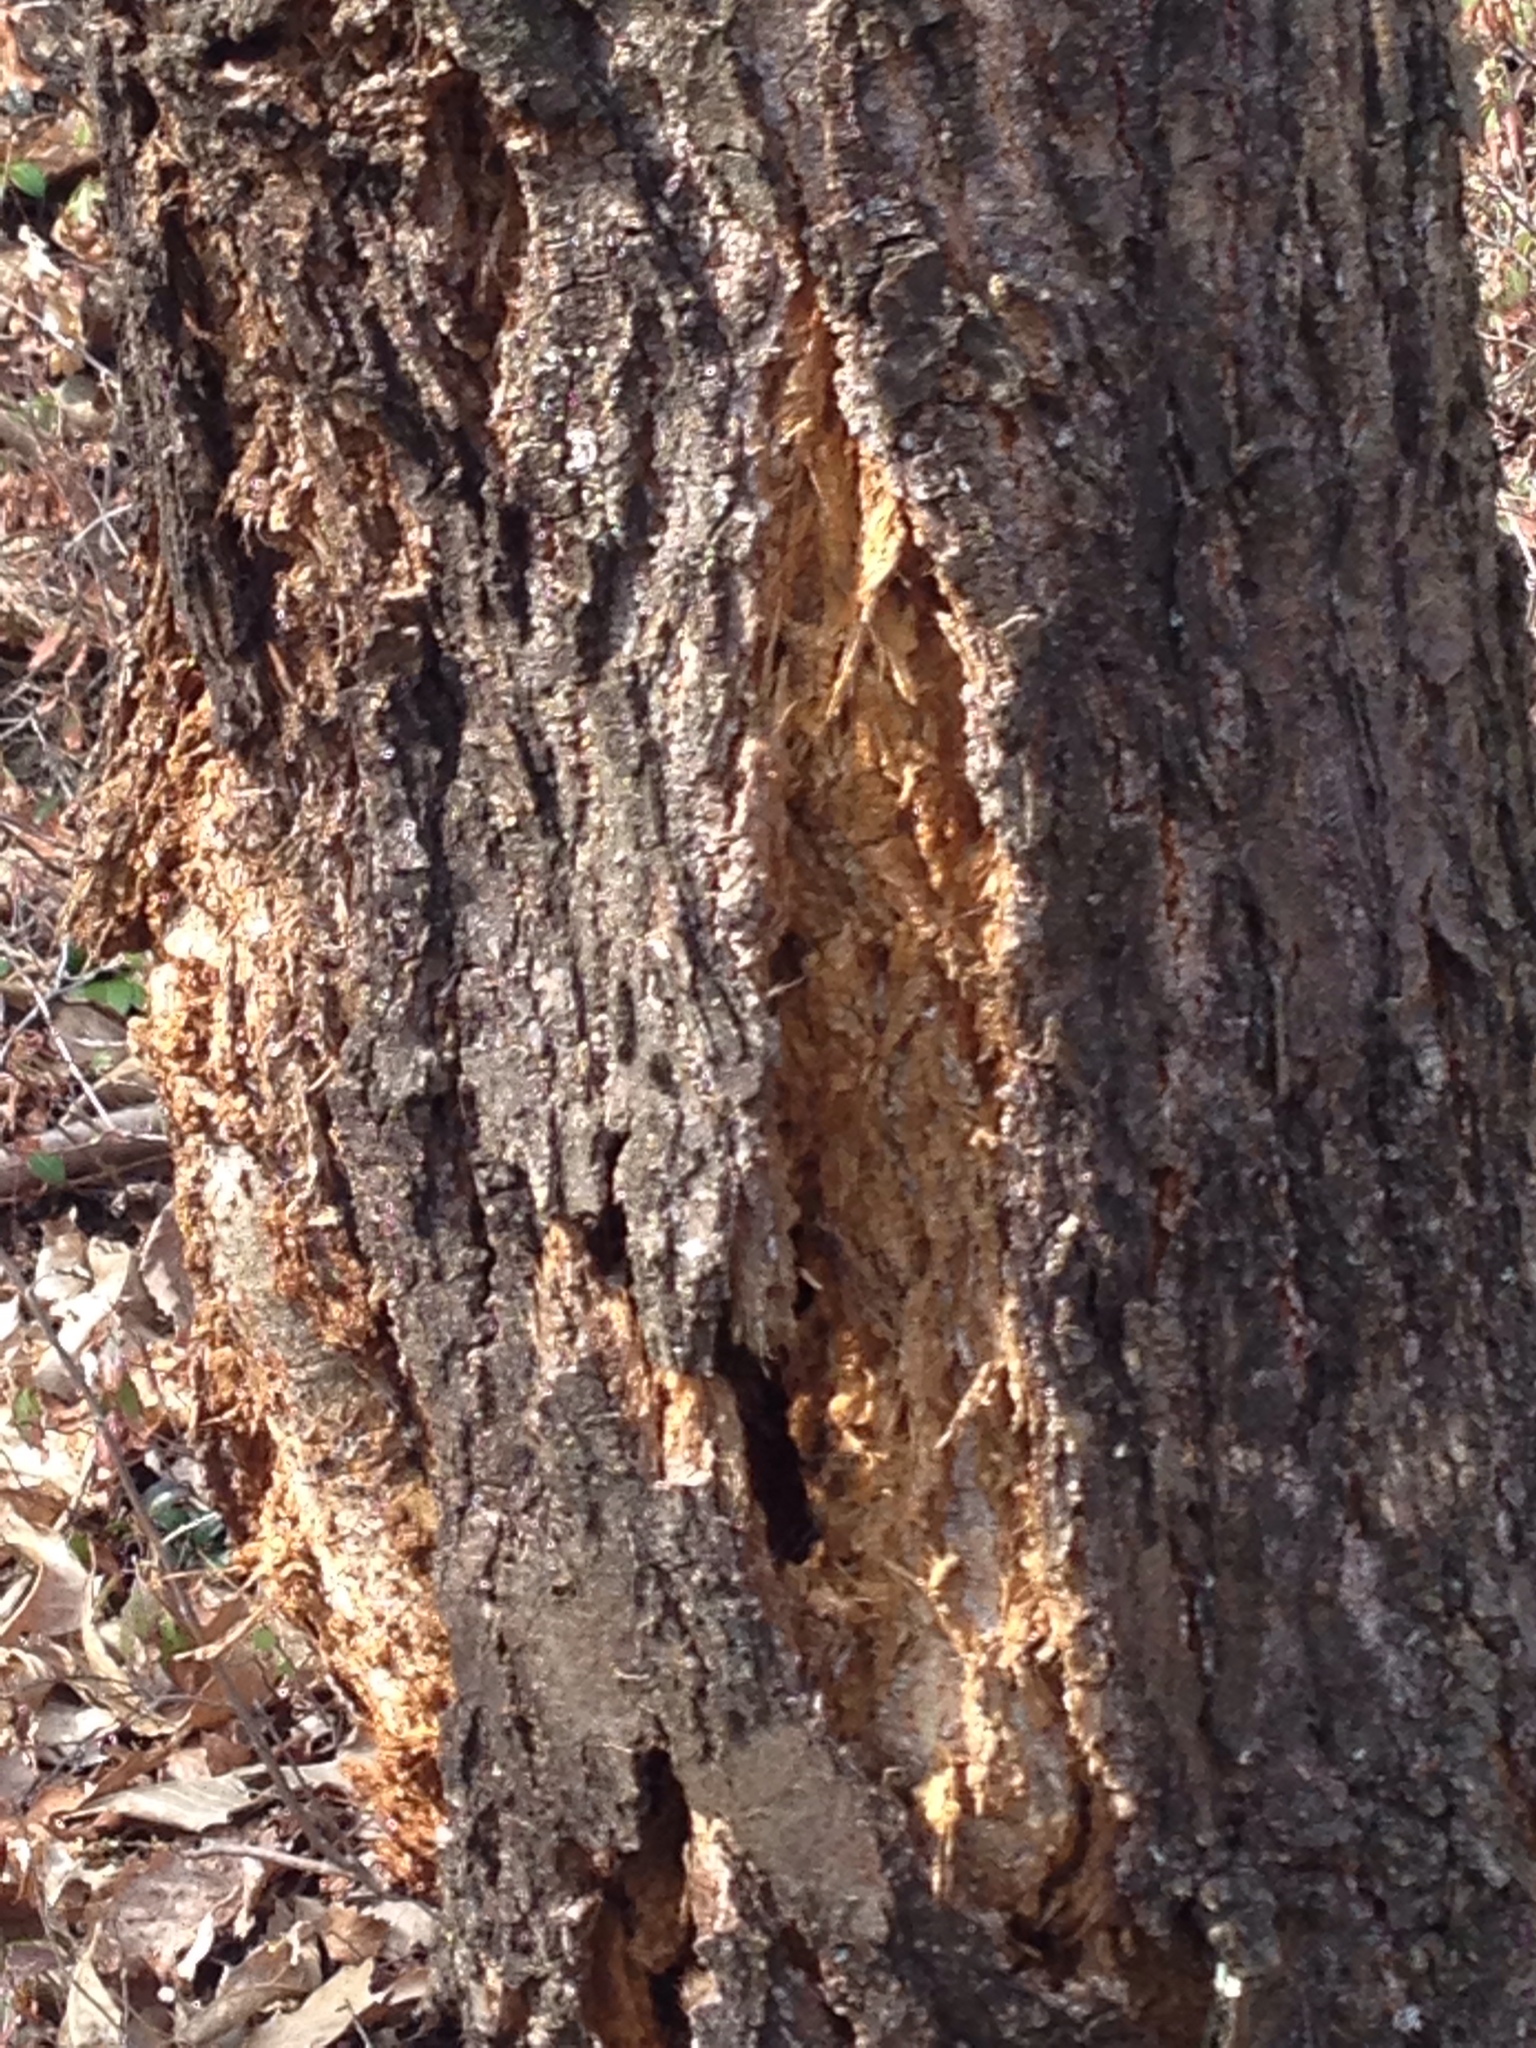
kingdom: Plantae
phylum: Tracheophyta
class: Magnoliopsida
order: Fagales
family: Fagaceae
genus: Castanea
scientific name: Castanea dentata
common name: American chestnut
